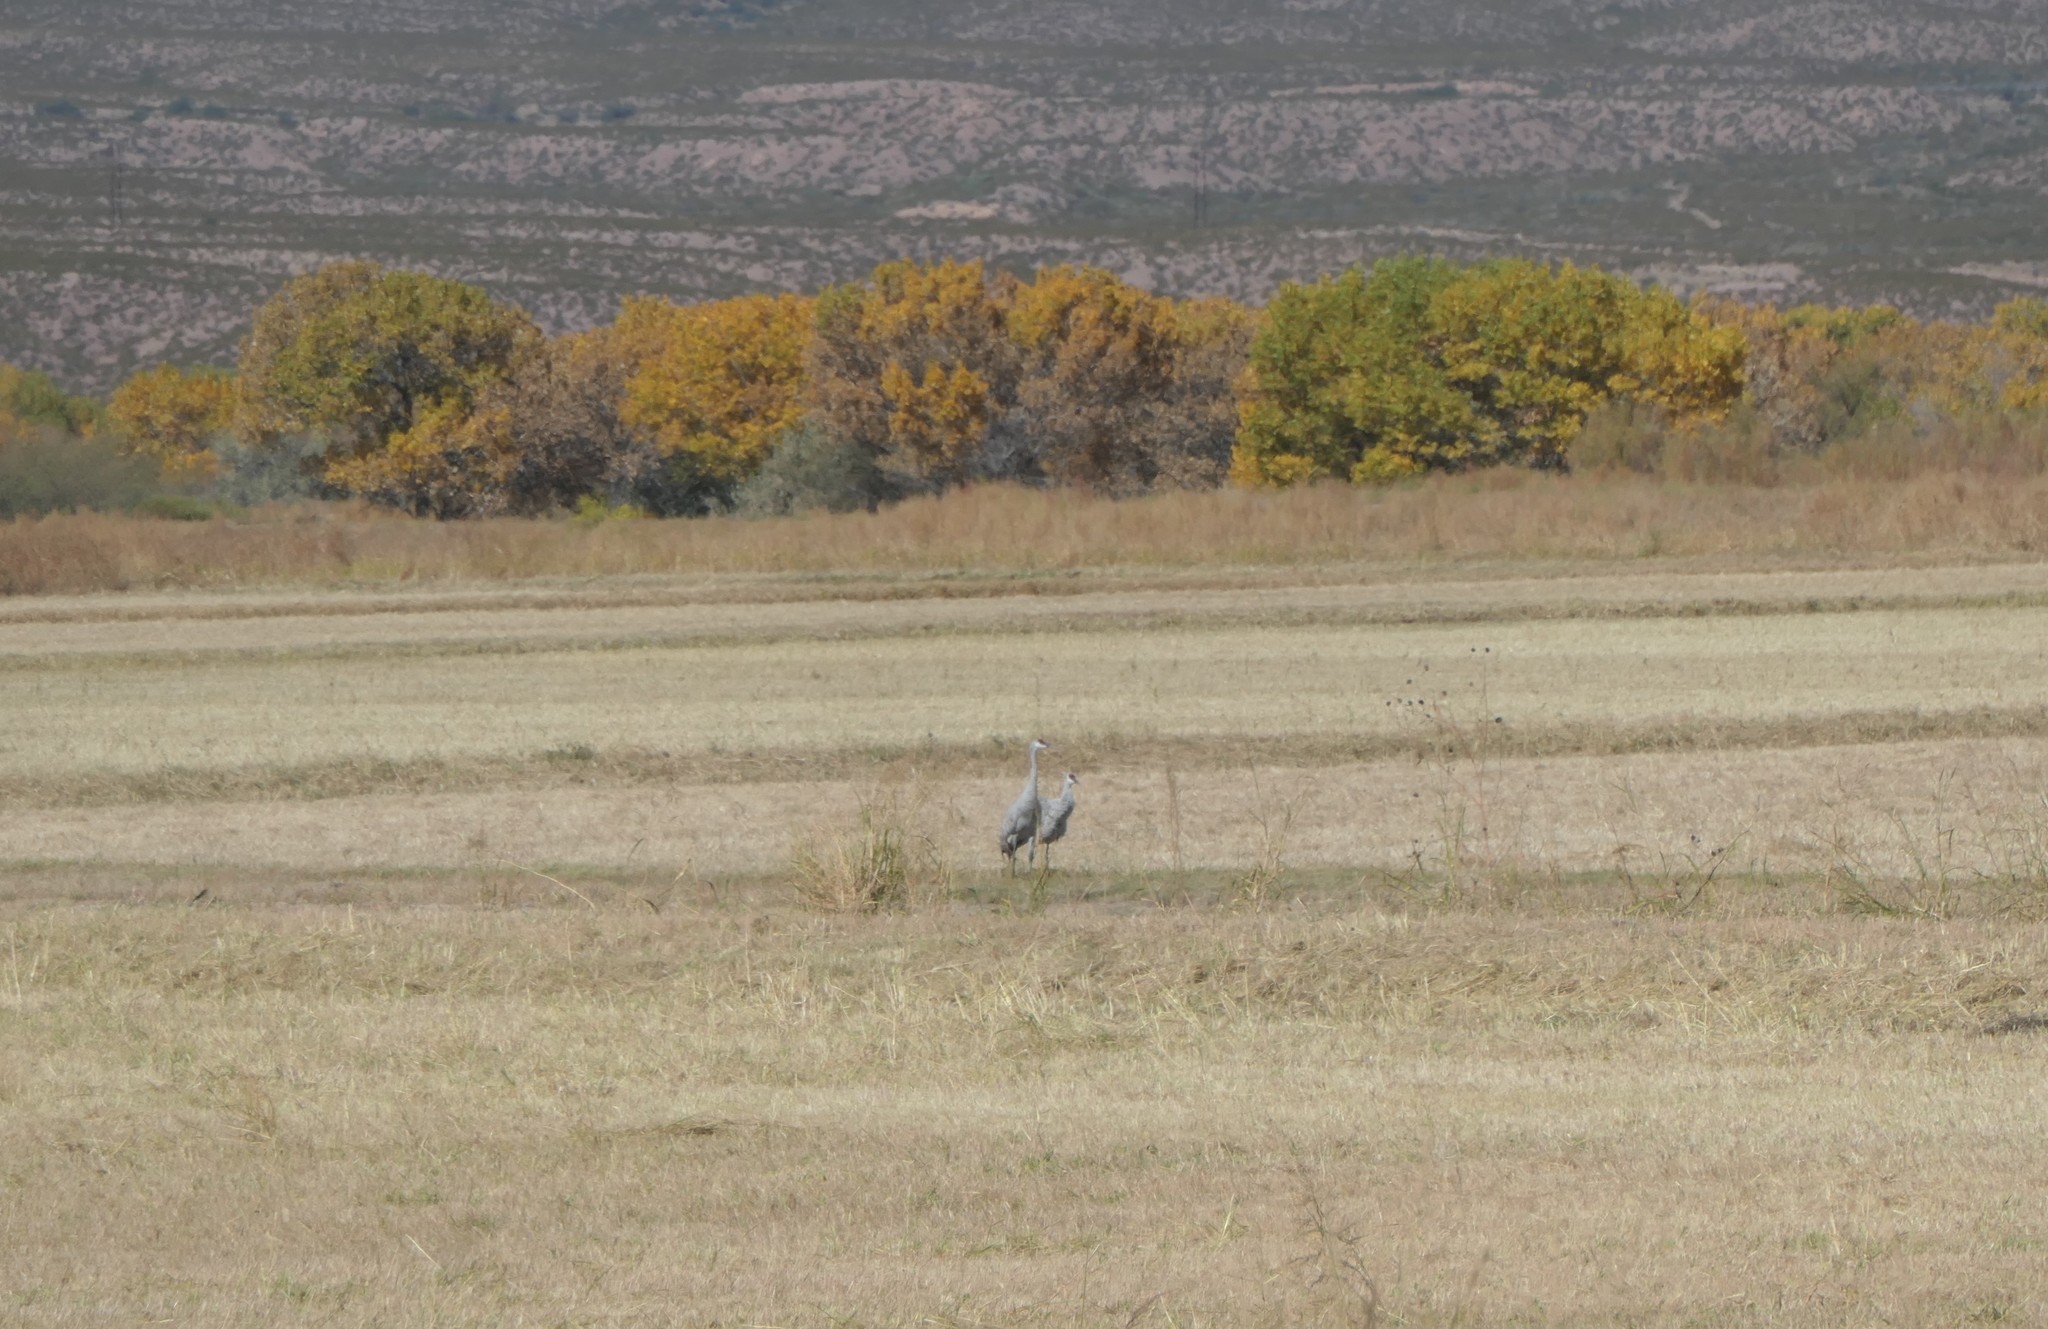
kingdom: Animalia
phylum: Chordata
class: Aves
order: Gruiformes
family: Gruidae
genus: Grus
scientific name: Grus canadensis
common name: Sandhill crane
